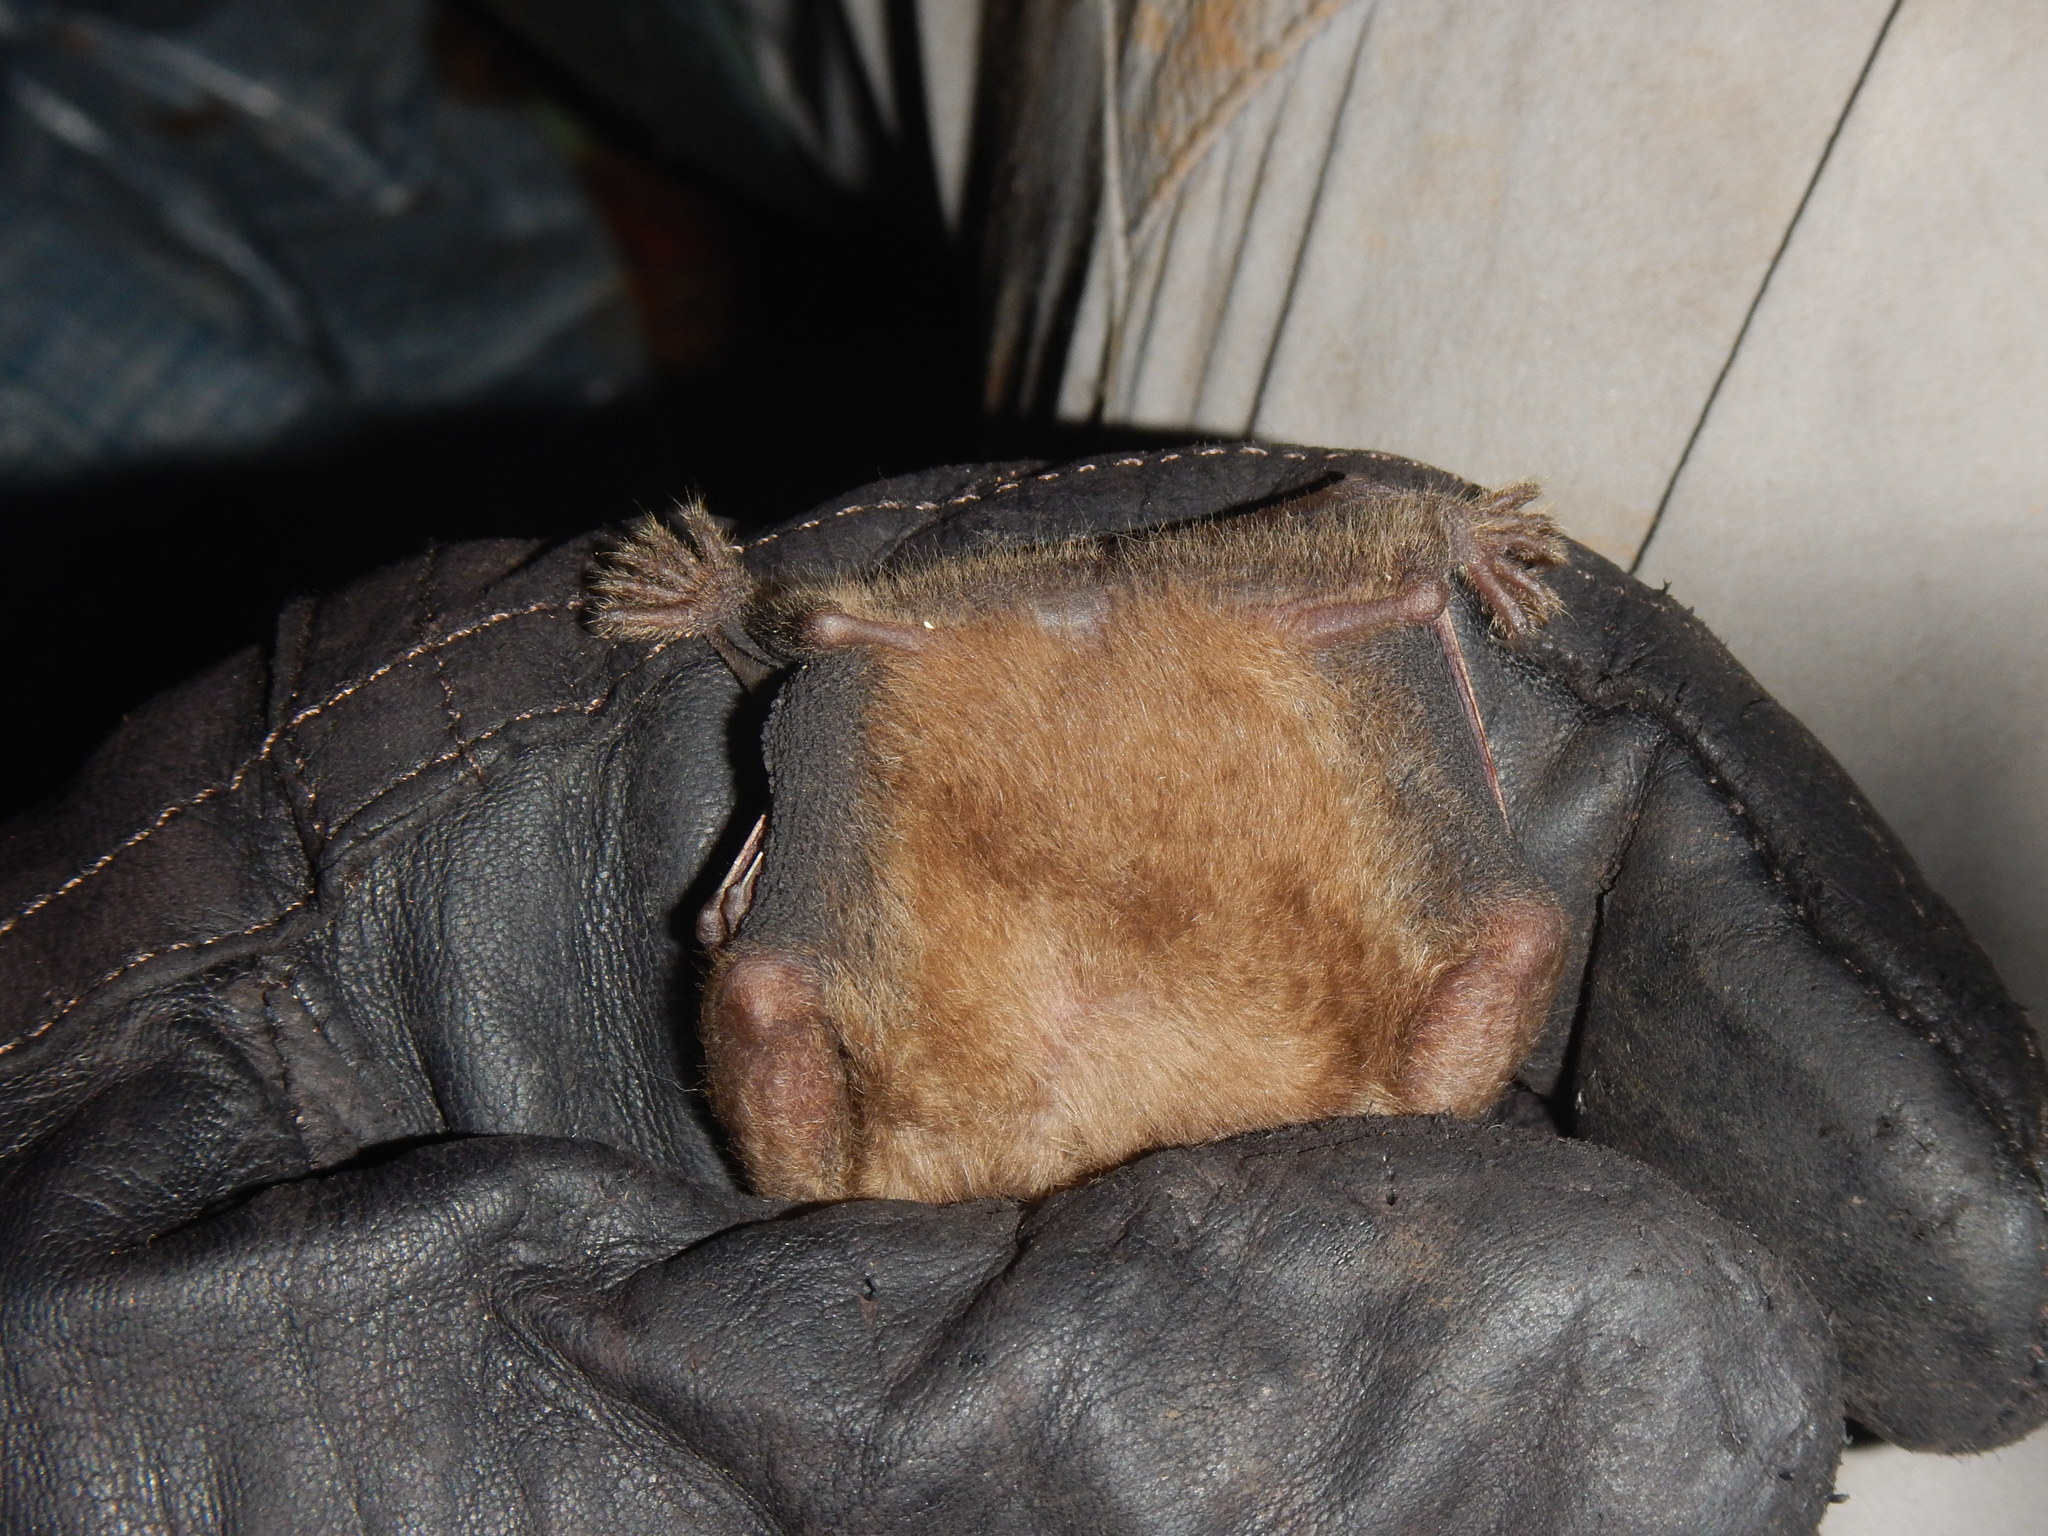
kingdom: Animalia
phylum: Chordata
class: Mammalia
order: Chiroptera
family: Phyllostomidae
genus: Rhinophylla
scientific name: Rhinophylla pumilio
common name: Dwarf little fruit bat
